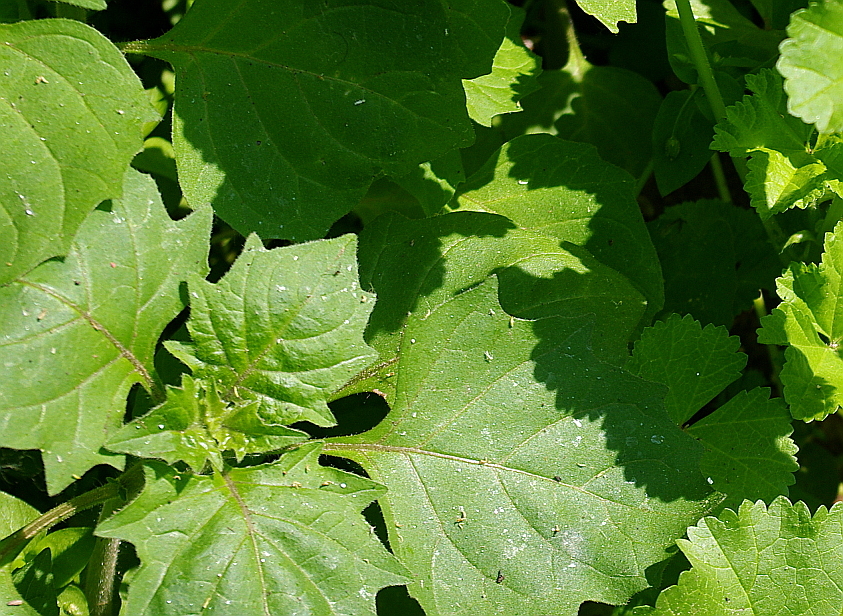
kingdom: Plantae
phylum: Tracheophyta
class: Magnoliopsida
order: Solanales
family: Solanaceae
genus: Solanum
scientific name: Solanum nigrum
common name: Black nightshade
